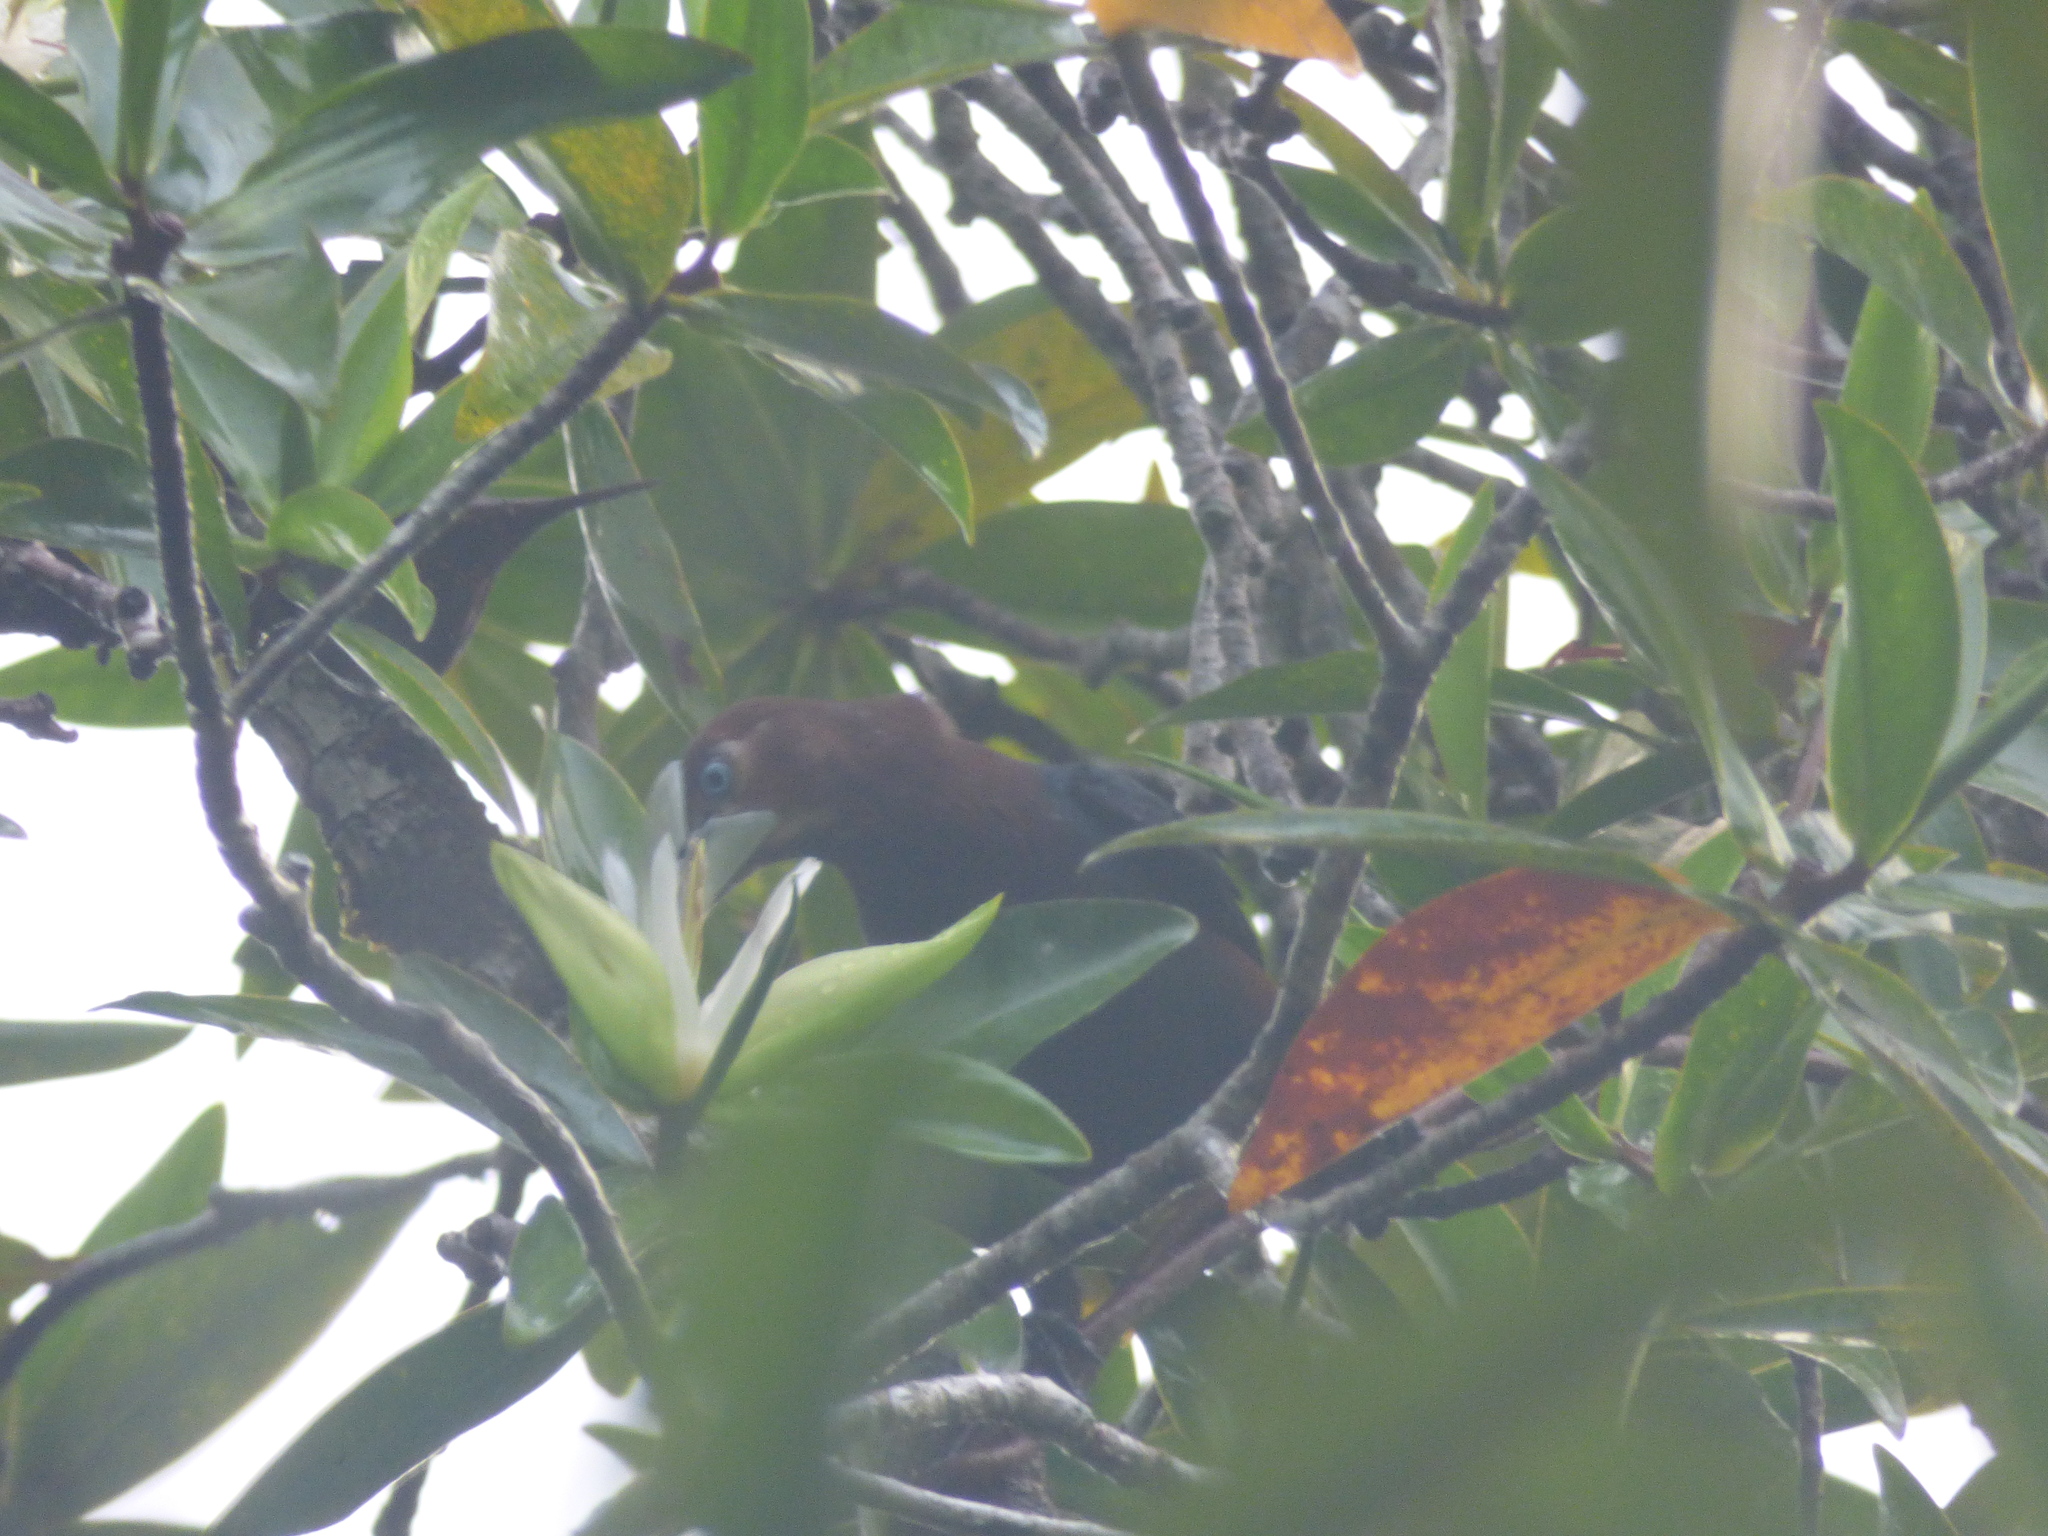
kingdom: Animalia
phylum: Chordata
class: Aves
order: Passeriformes
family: Icteridae
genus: Psarocolius
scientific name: Psarocolius wagleri
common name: Chestnut-headed oropendola
